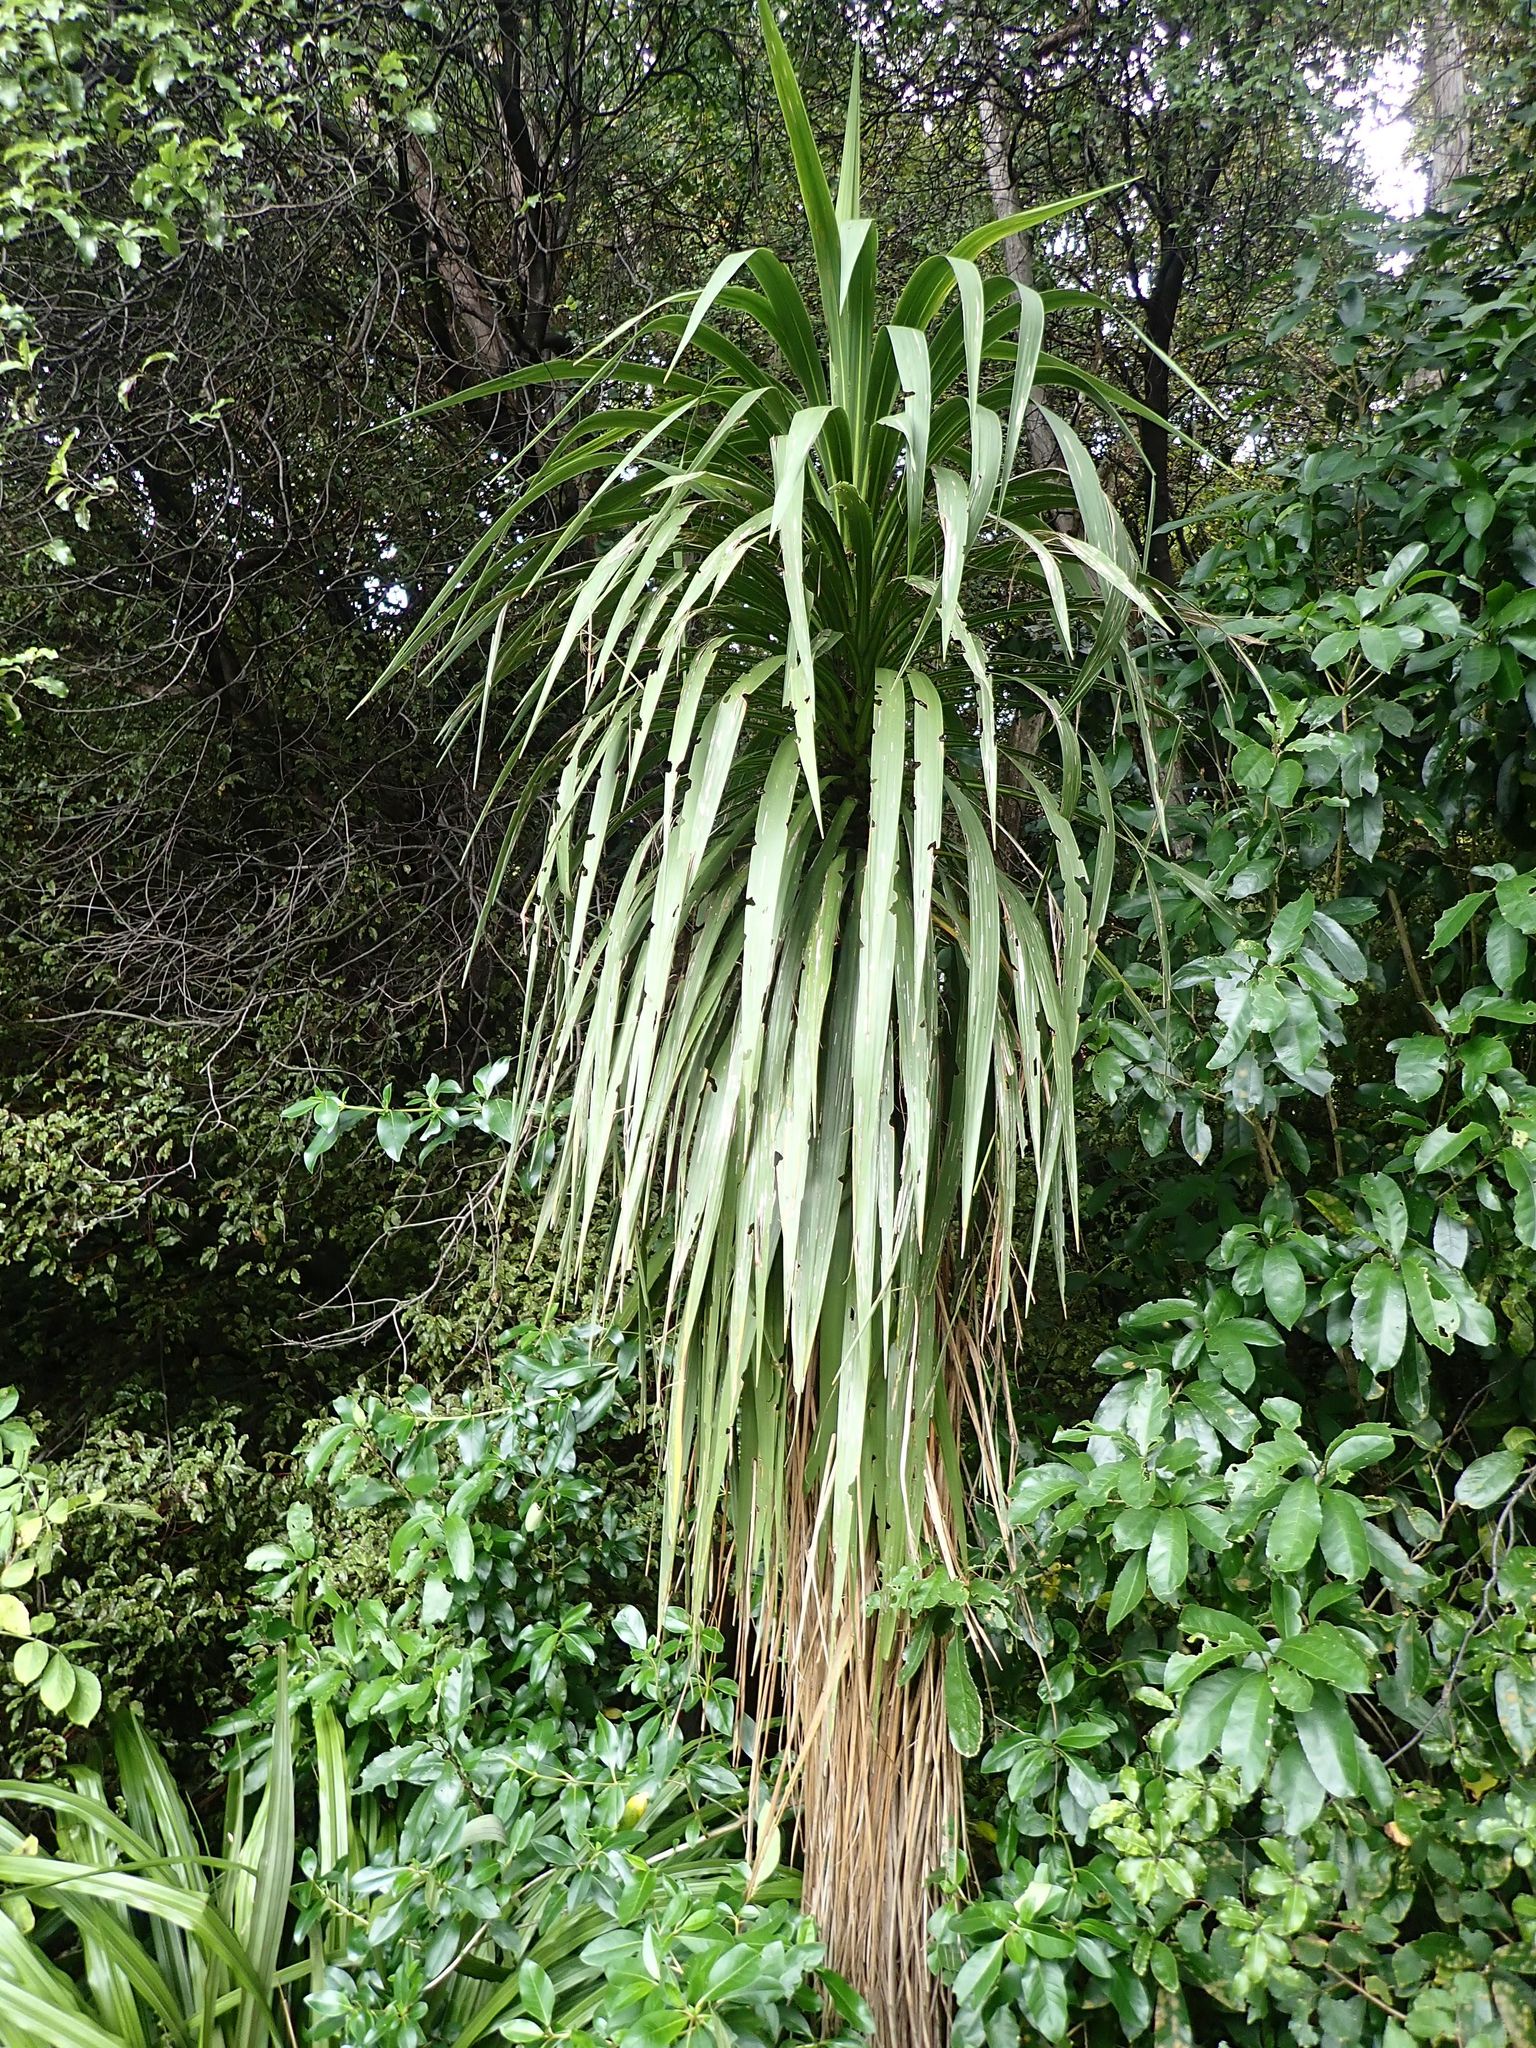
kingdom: Plantae
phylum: Tracheophyta
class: Liliopsida
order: Asparagales
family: Asparagaceae
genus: Cordyline
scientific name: Cordyline australis
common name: Cabbage-palm
